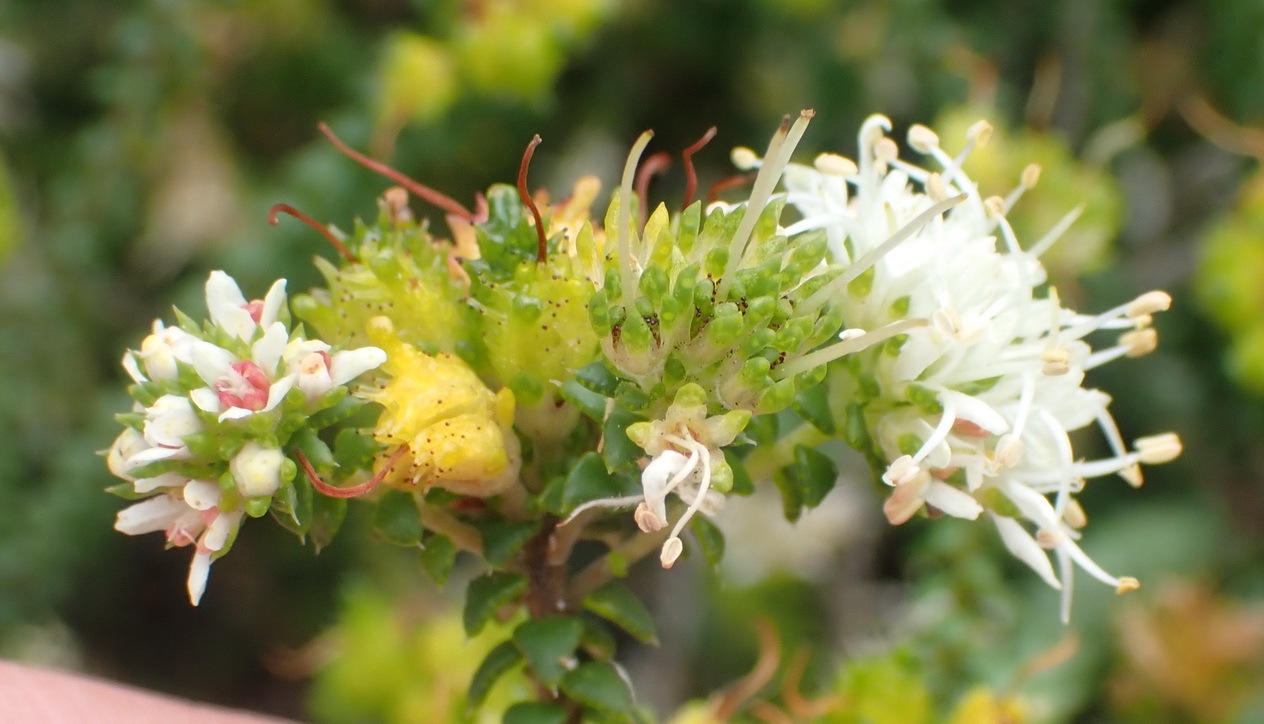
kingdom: Plantae
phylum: Tracheophyta
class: Magnoliopsida
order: Sapindales
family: Rutaceae
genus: Agathosma
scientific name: Agathosma apiculata
